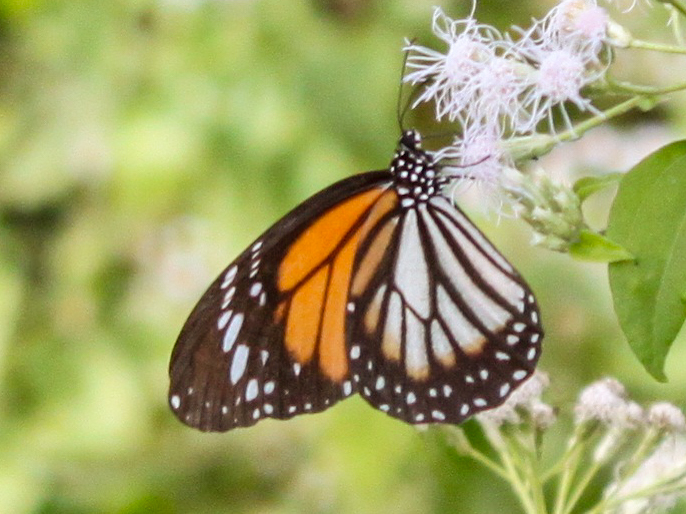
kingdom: Animalia
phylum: Arthropoda
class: Insecta
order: Lepidoptera
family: Nymphalidae
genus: Danaus
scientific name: Danaus melanippus
